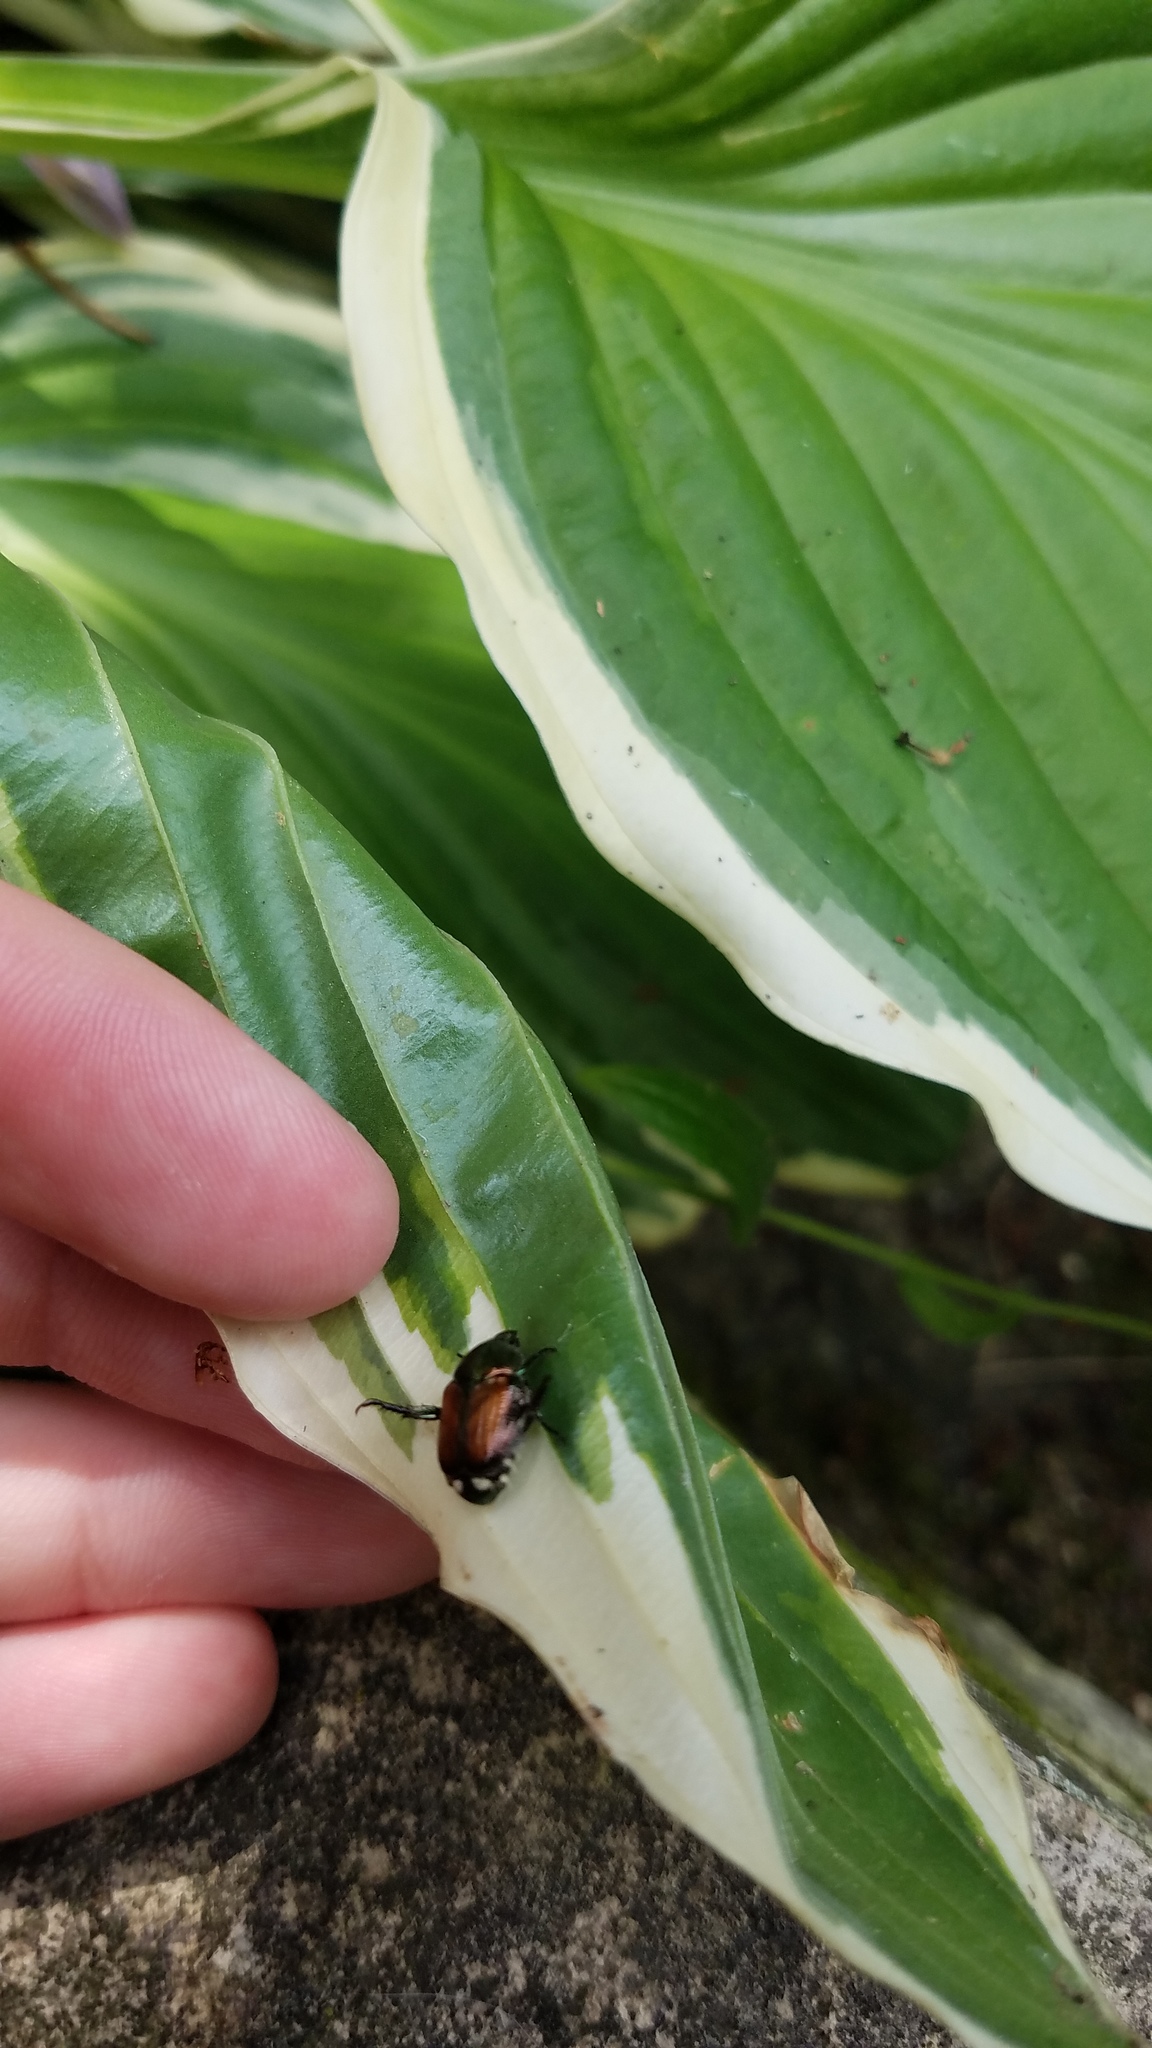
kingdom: Animalia
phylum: Arthropoda
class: Insecta
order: Coleoptera
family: Scarabaeidae
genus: Popillia
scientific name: Popillia japonica
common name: Japanese beetle
